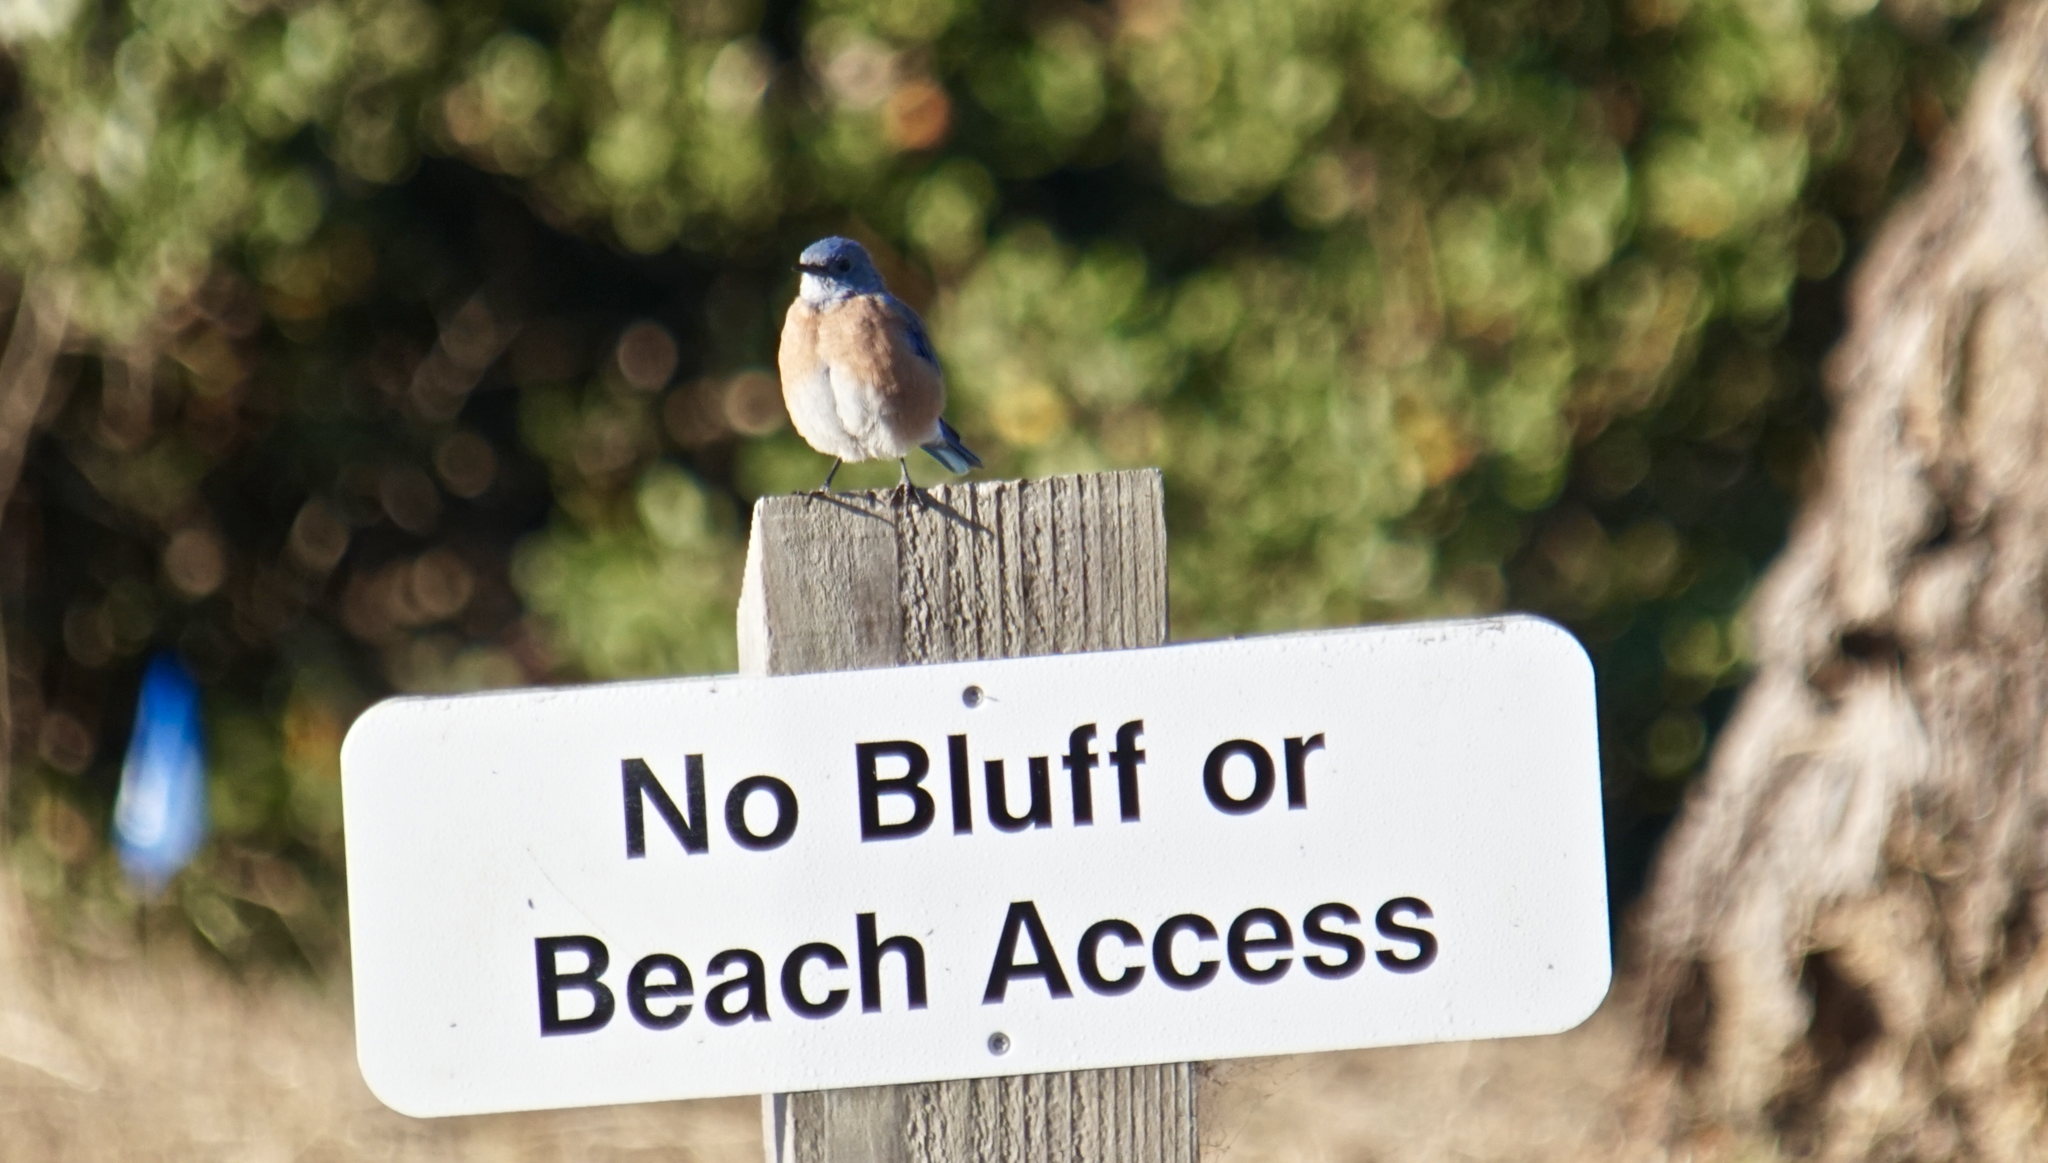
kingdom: Animalia
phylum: Chordata
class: Aves
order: Passeriformes
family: Turdidae
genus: Sialia
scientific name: Sialia mexicana
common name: Western bluebird
